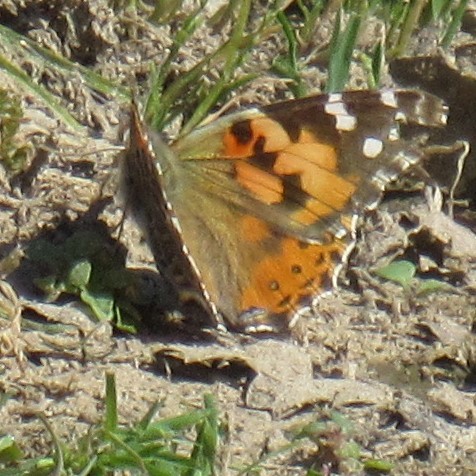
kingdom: Animalia
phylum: Arthropoda
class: Insecta
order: Lepidoptera
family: Nymphalidae
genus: Vanessa
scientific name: Vanessa cardui
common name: Painted lady
